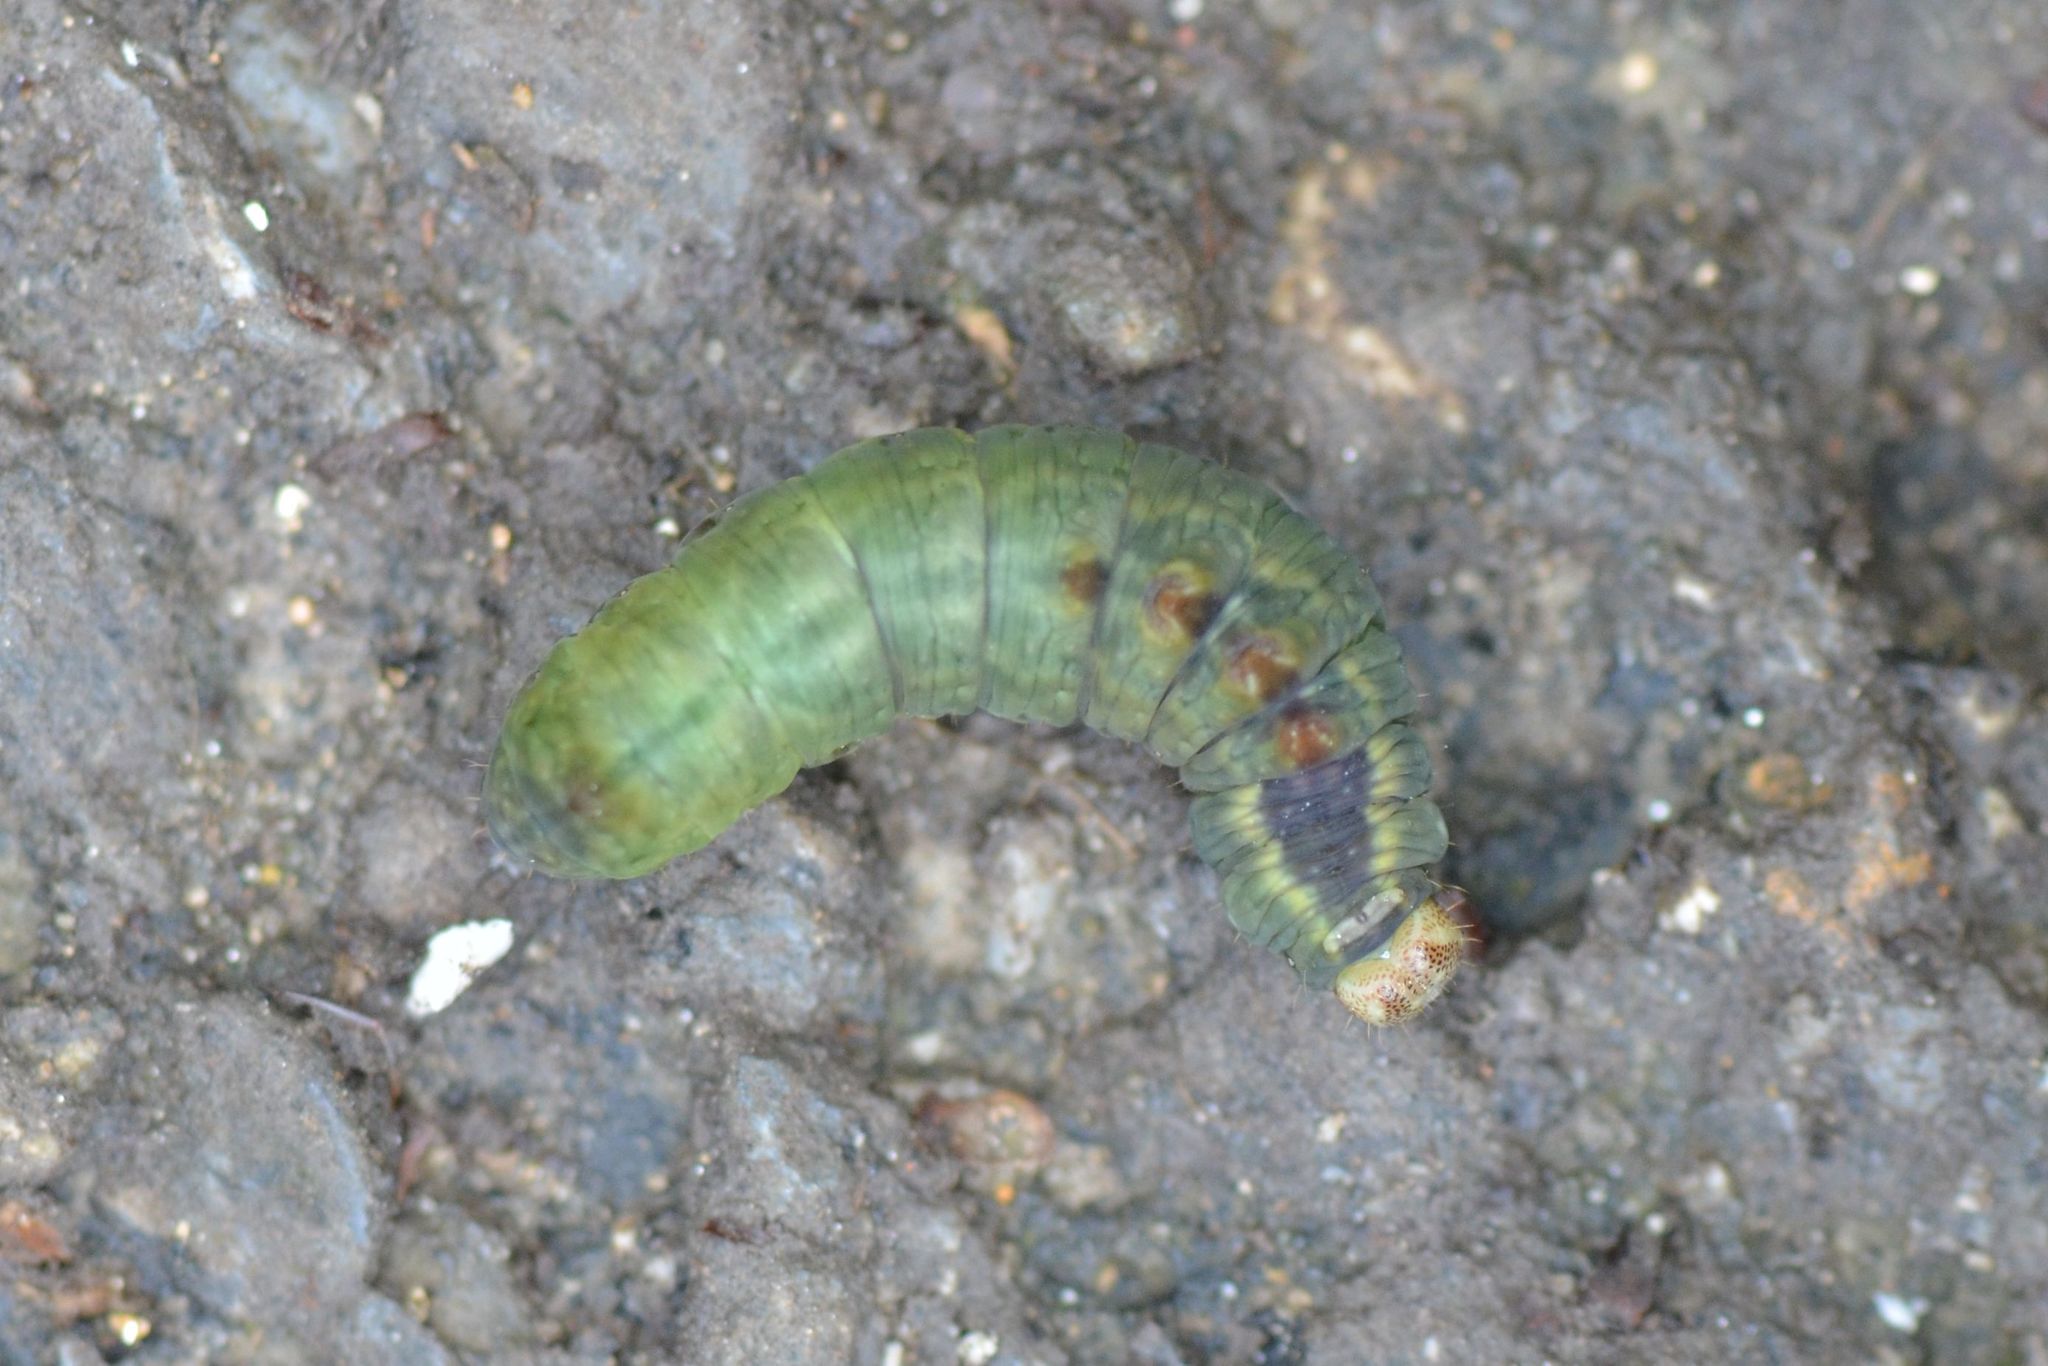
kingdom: Animalia
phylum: Arthropoda
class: Insecta
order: Lepidoptera
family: Notodontidae
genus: Notodonta
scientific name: Notodonta dromedarius
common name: Iron prominent
